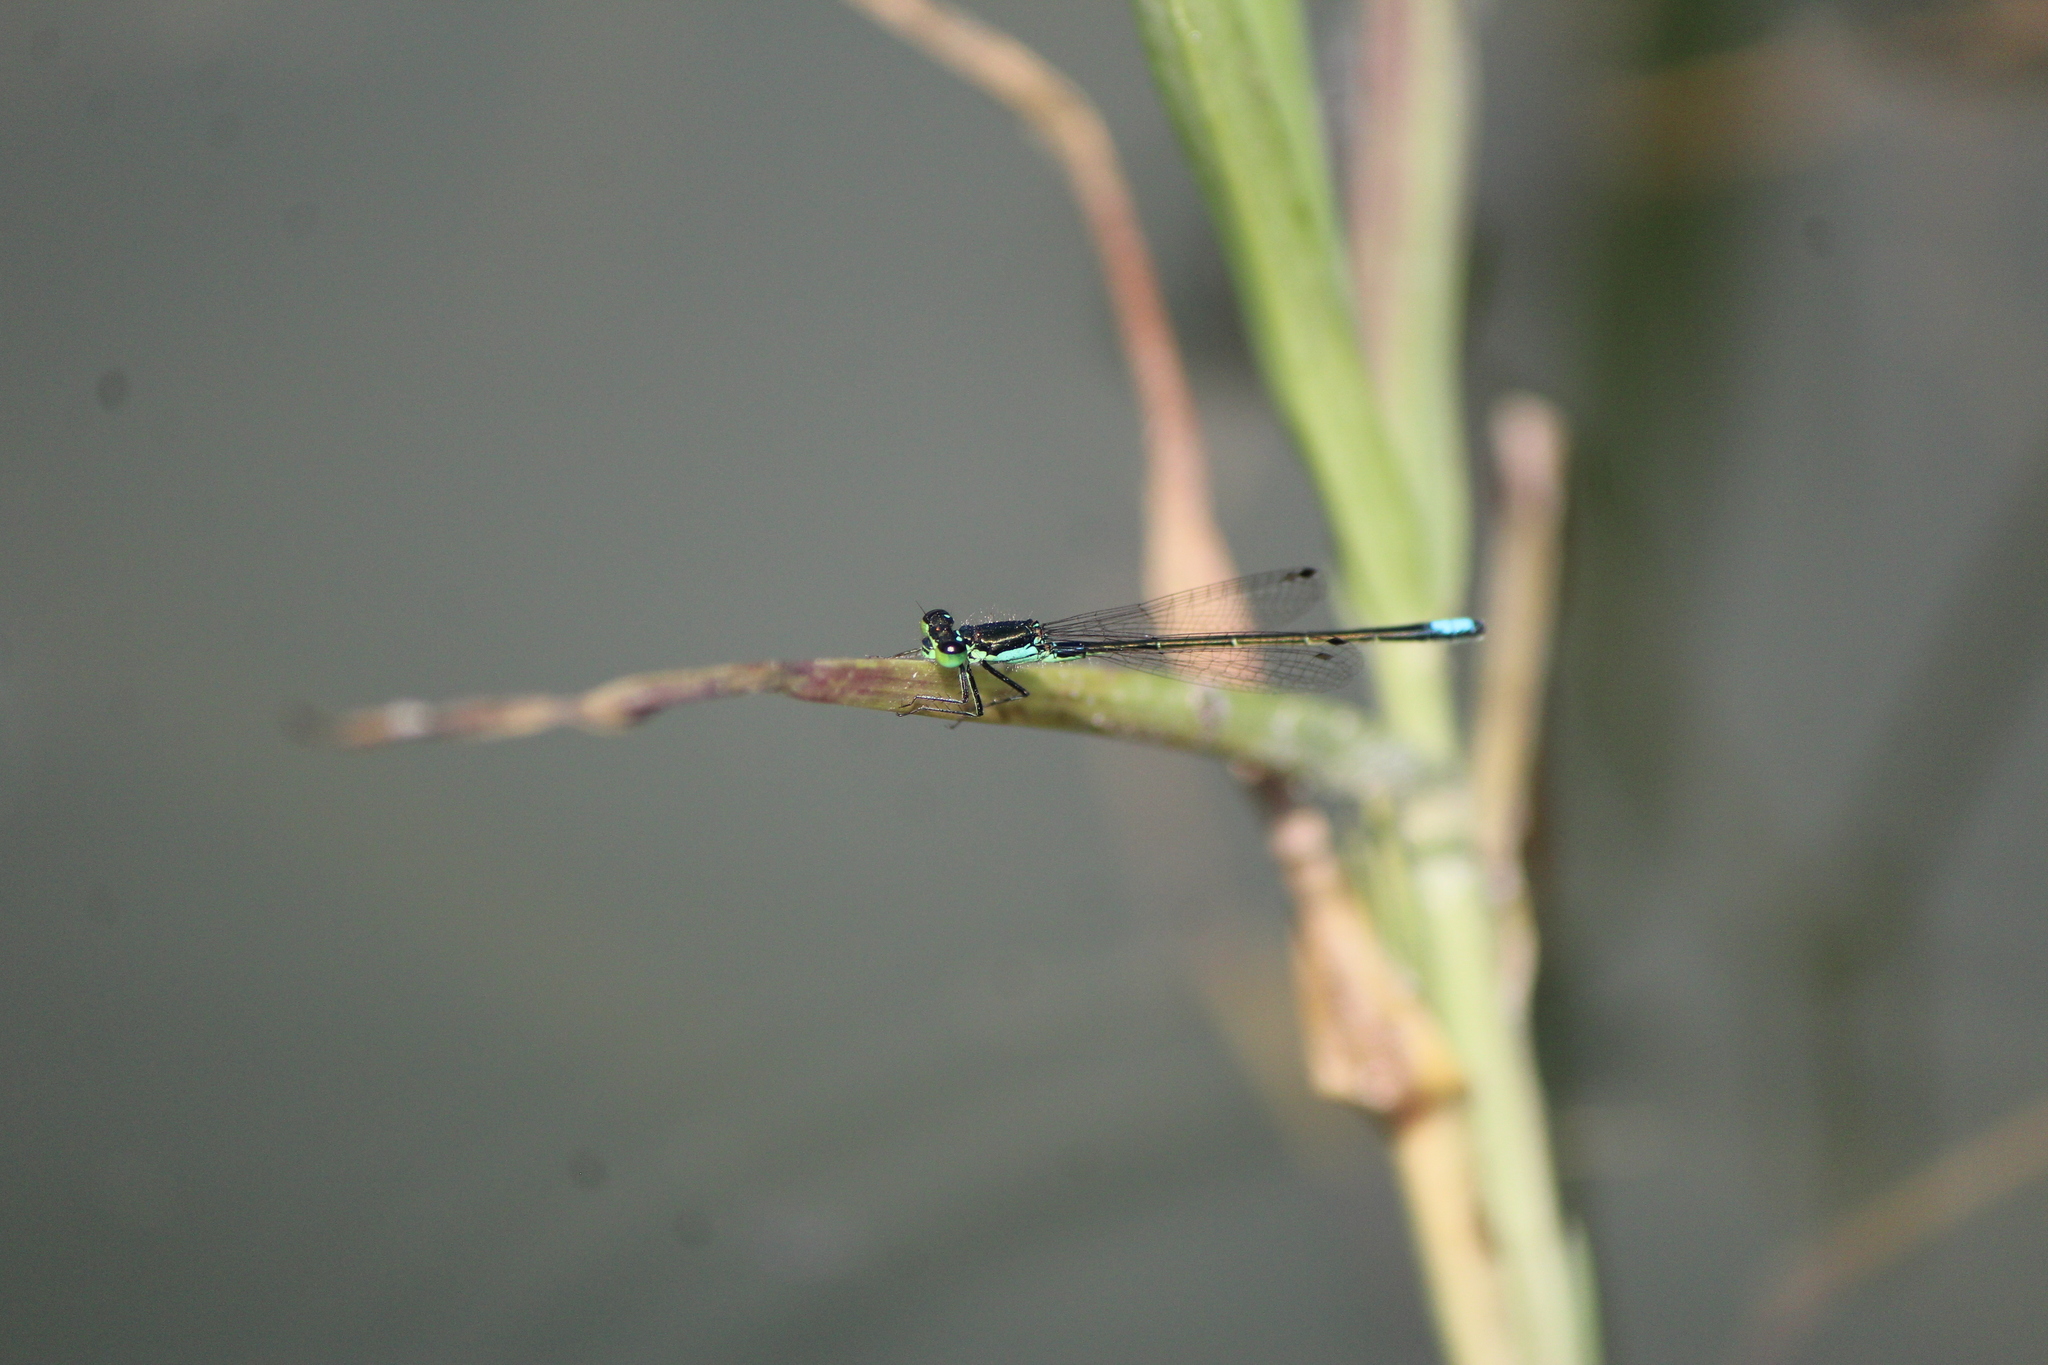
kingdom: Animalia
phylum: Arthropoda
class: Insecta
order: Odonata
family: Coenagrionidae
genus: Ischnura
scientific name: Ischnura denticollis
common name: Black-fronted forktail
